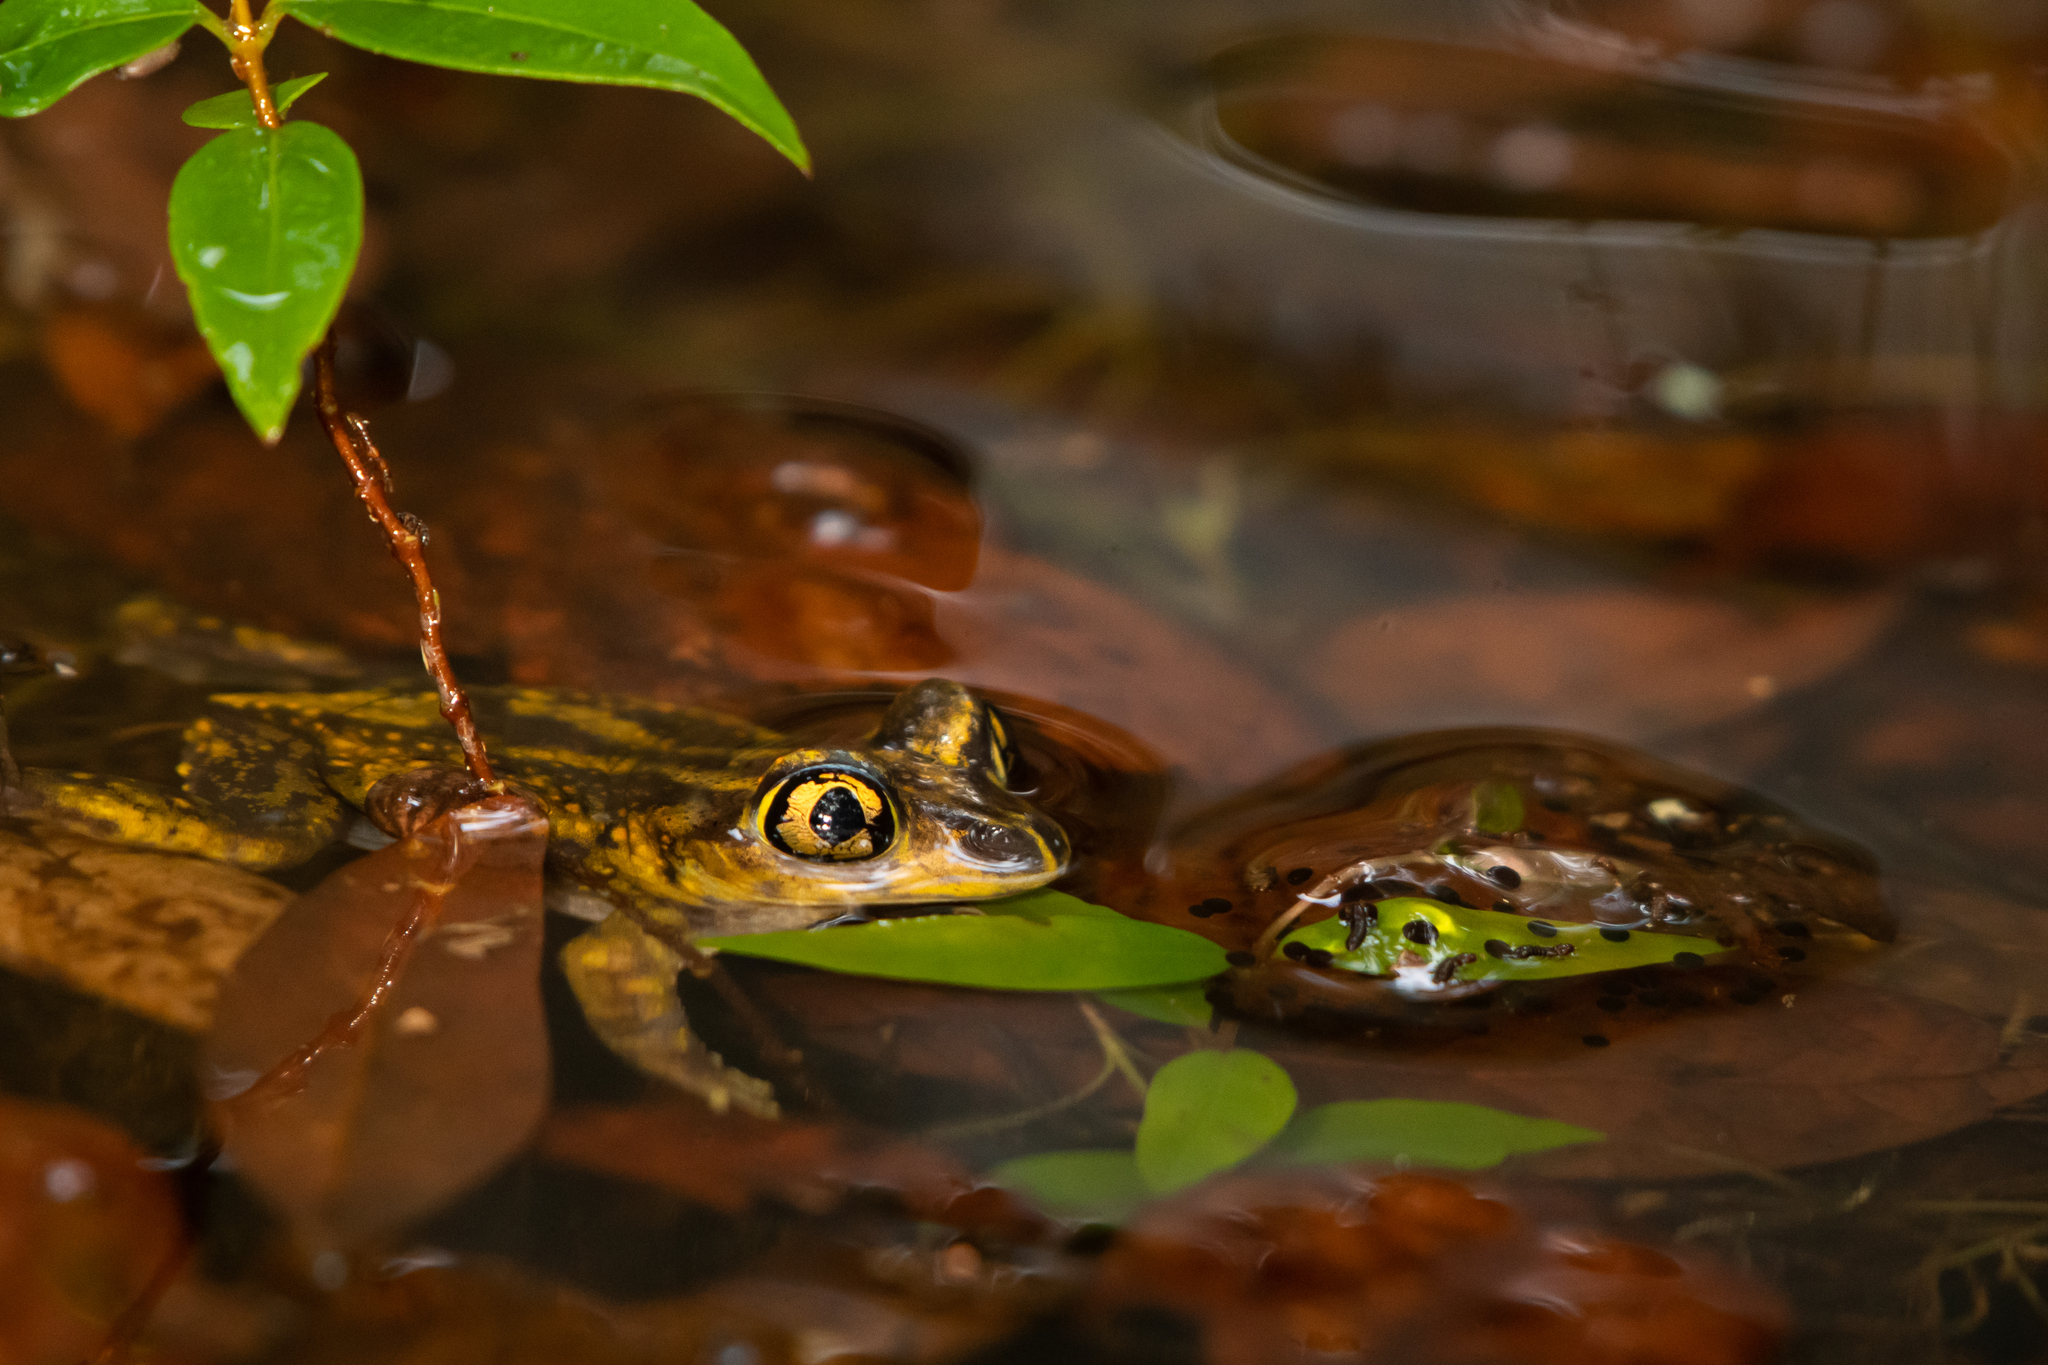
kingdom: Animalia
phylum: Chordata
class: Amphibia
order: Anura
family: Scaphiopodidae
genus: Scaphiopus
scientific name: Scaphiopus holbrookii
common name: Eastern spadefoot toad
